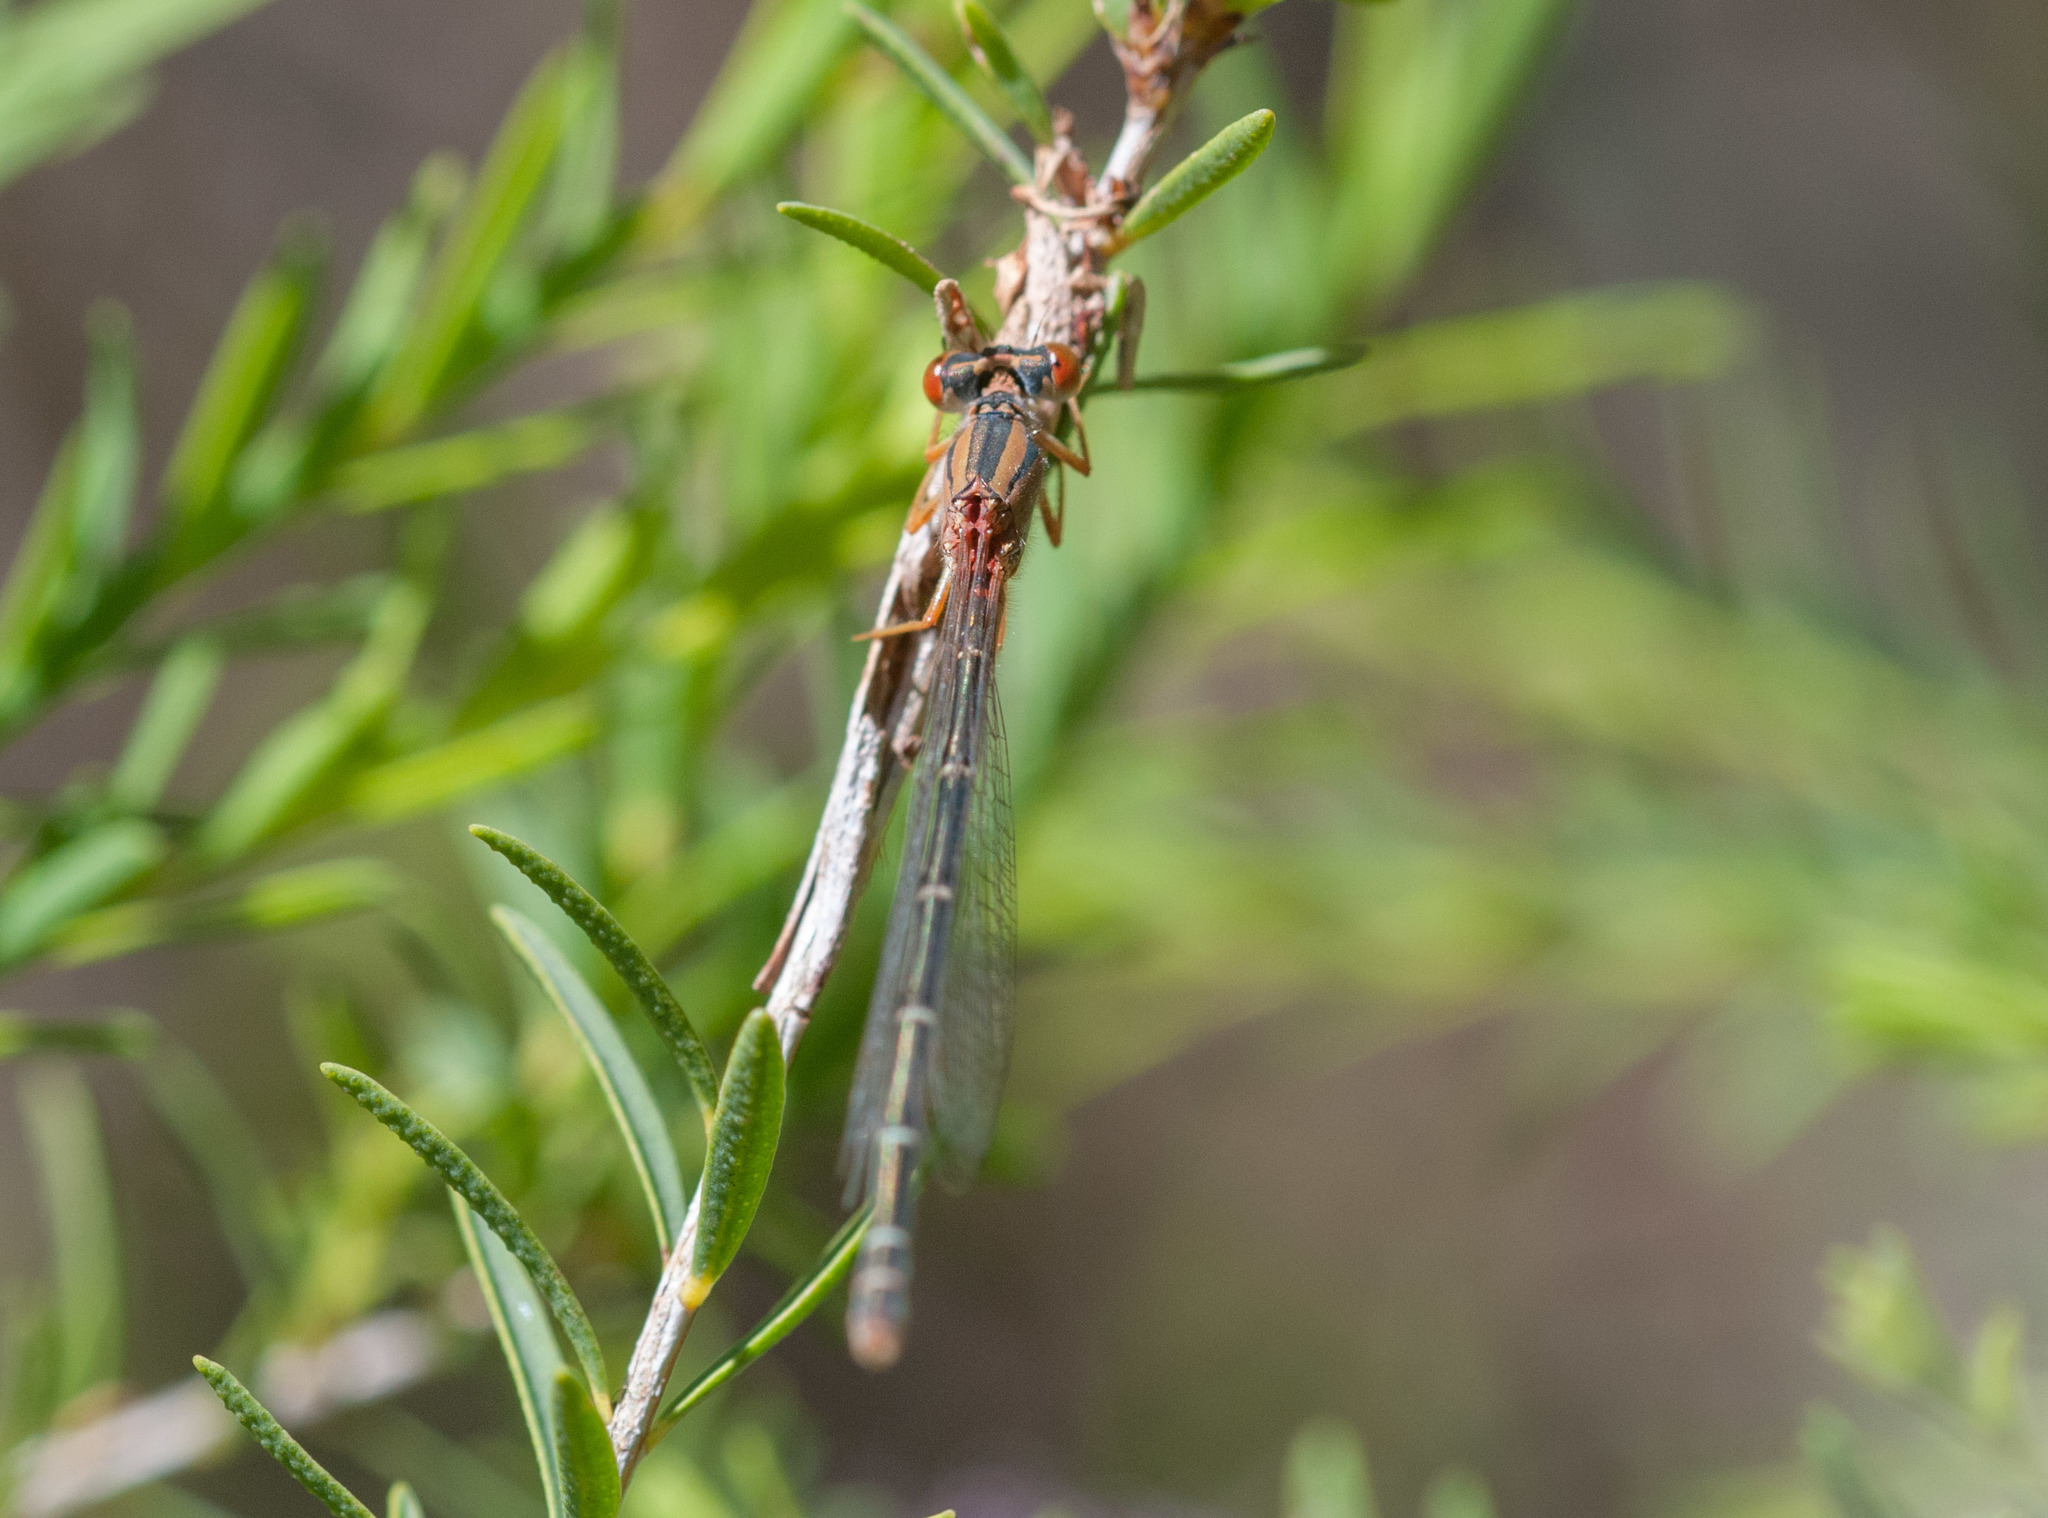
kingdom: Animalia
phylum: Arthropoda
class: Insecta
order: Odonata
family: Coenagrionidae
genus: Xanthagrion
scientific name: Xanthagrion erythroneurum
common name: Red and blue damsel
